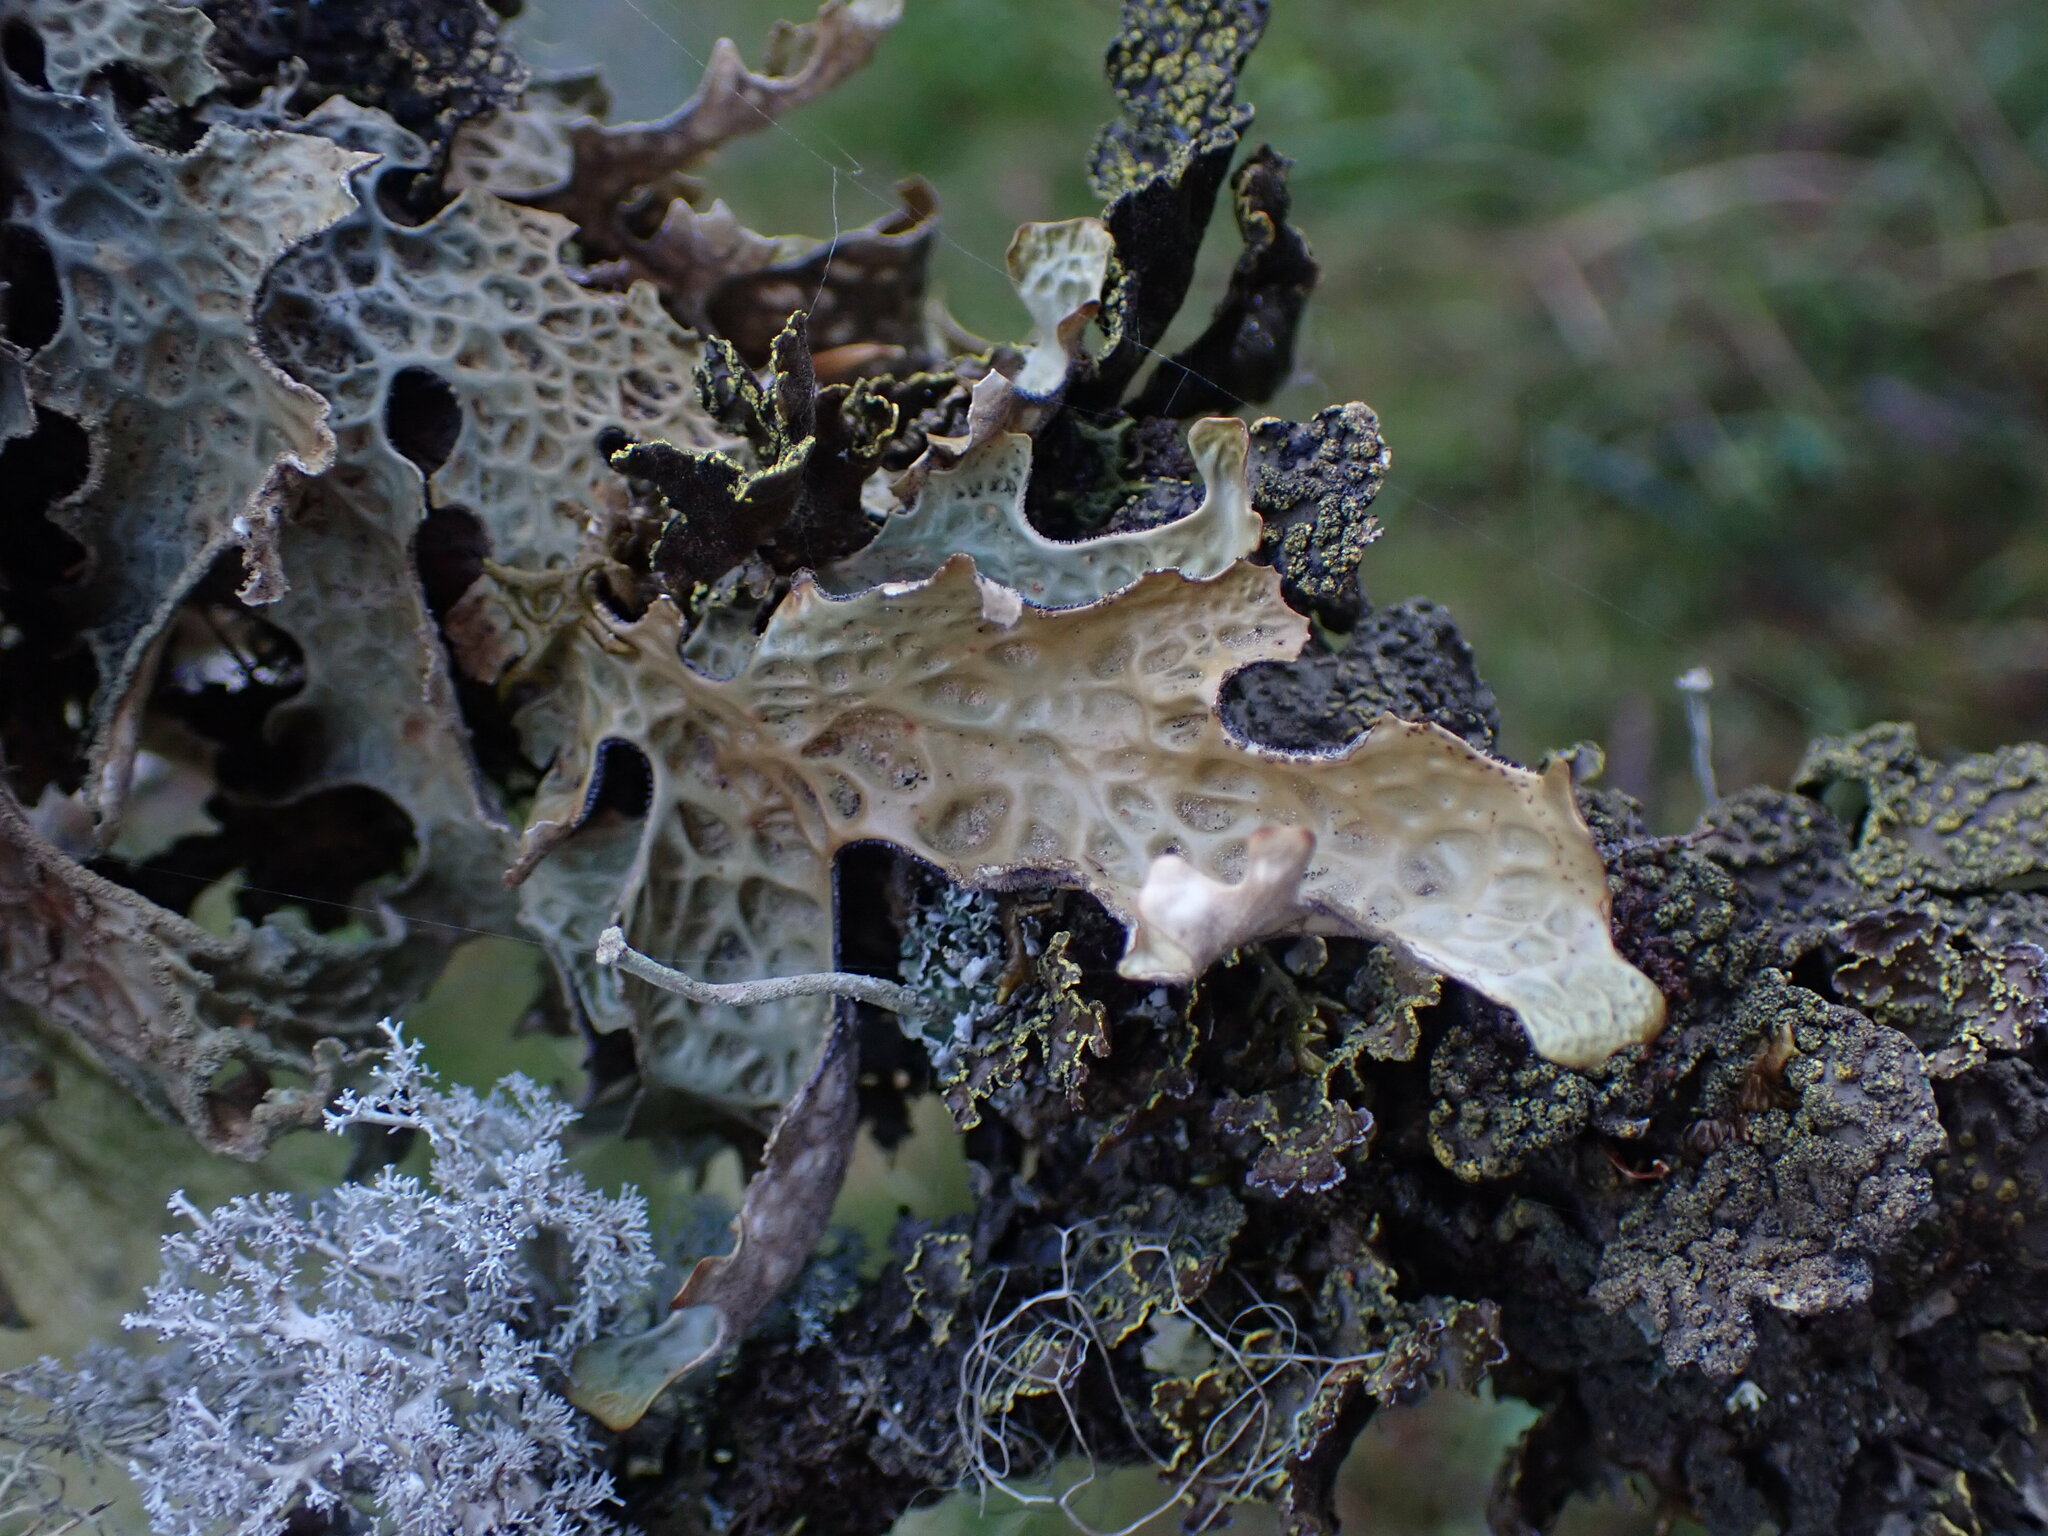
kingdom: Fungi
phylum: Ascomycota
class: Lecanoromycetes
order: Peltigerales
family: Lobariaceae
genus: Lobaria
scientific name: Lobaria pulmonaria
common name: Lungwort
